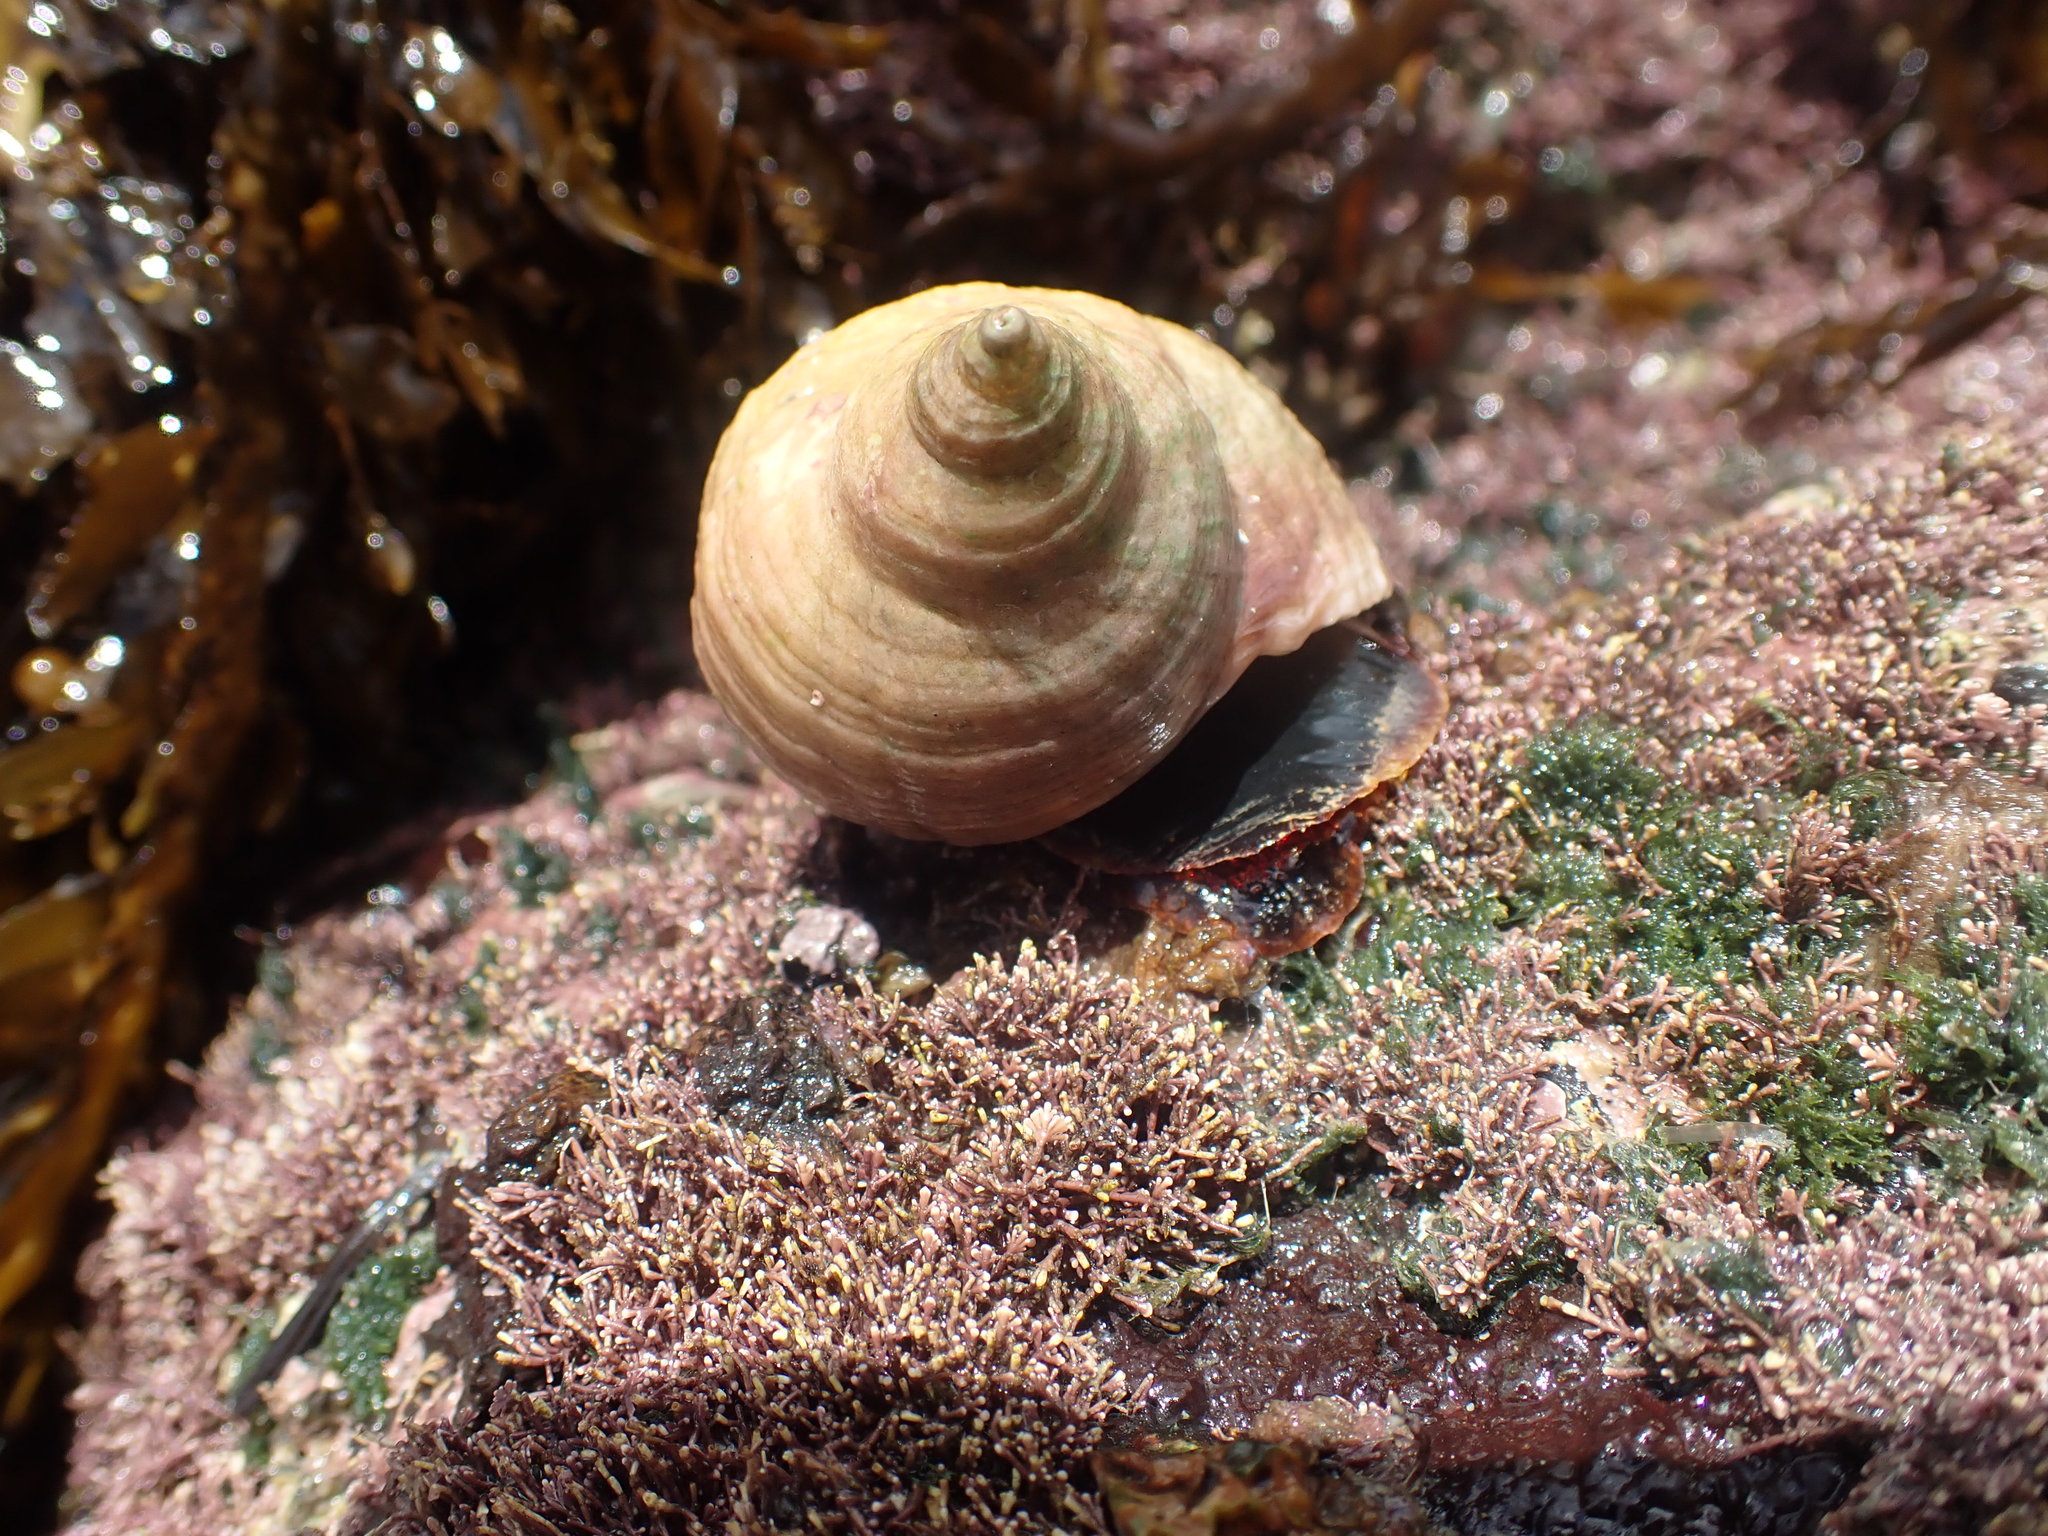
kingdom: Animalia
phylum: Mollusca
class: Gastropoda
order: Neogastropoda
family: Muricidae
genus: Dicathais
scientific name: Dicathais orbita
